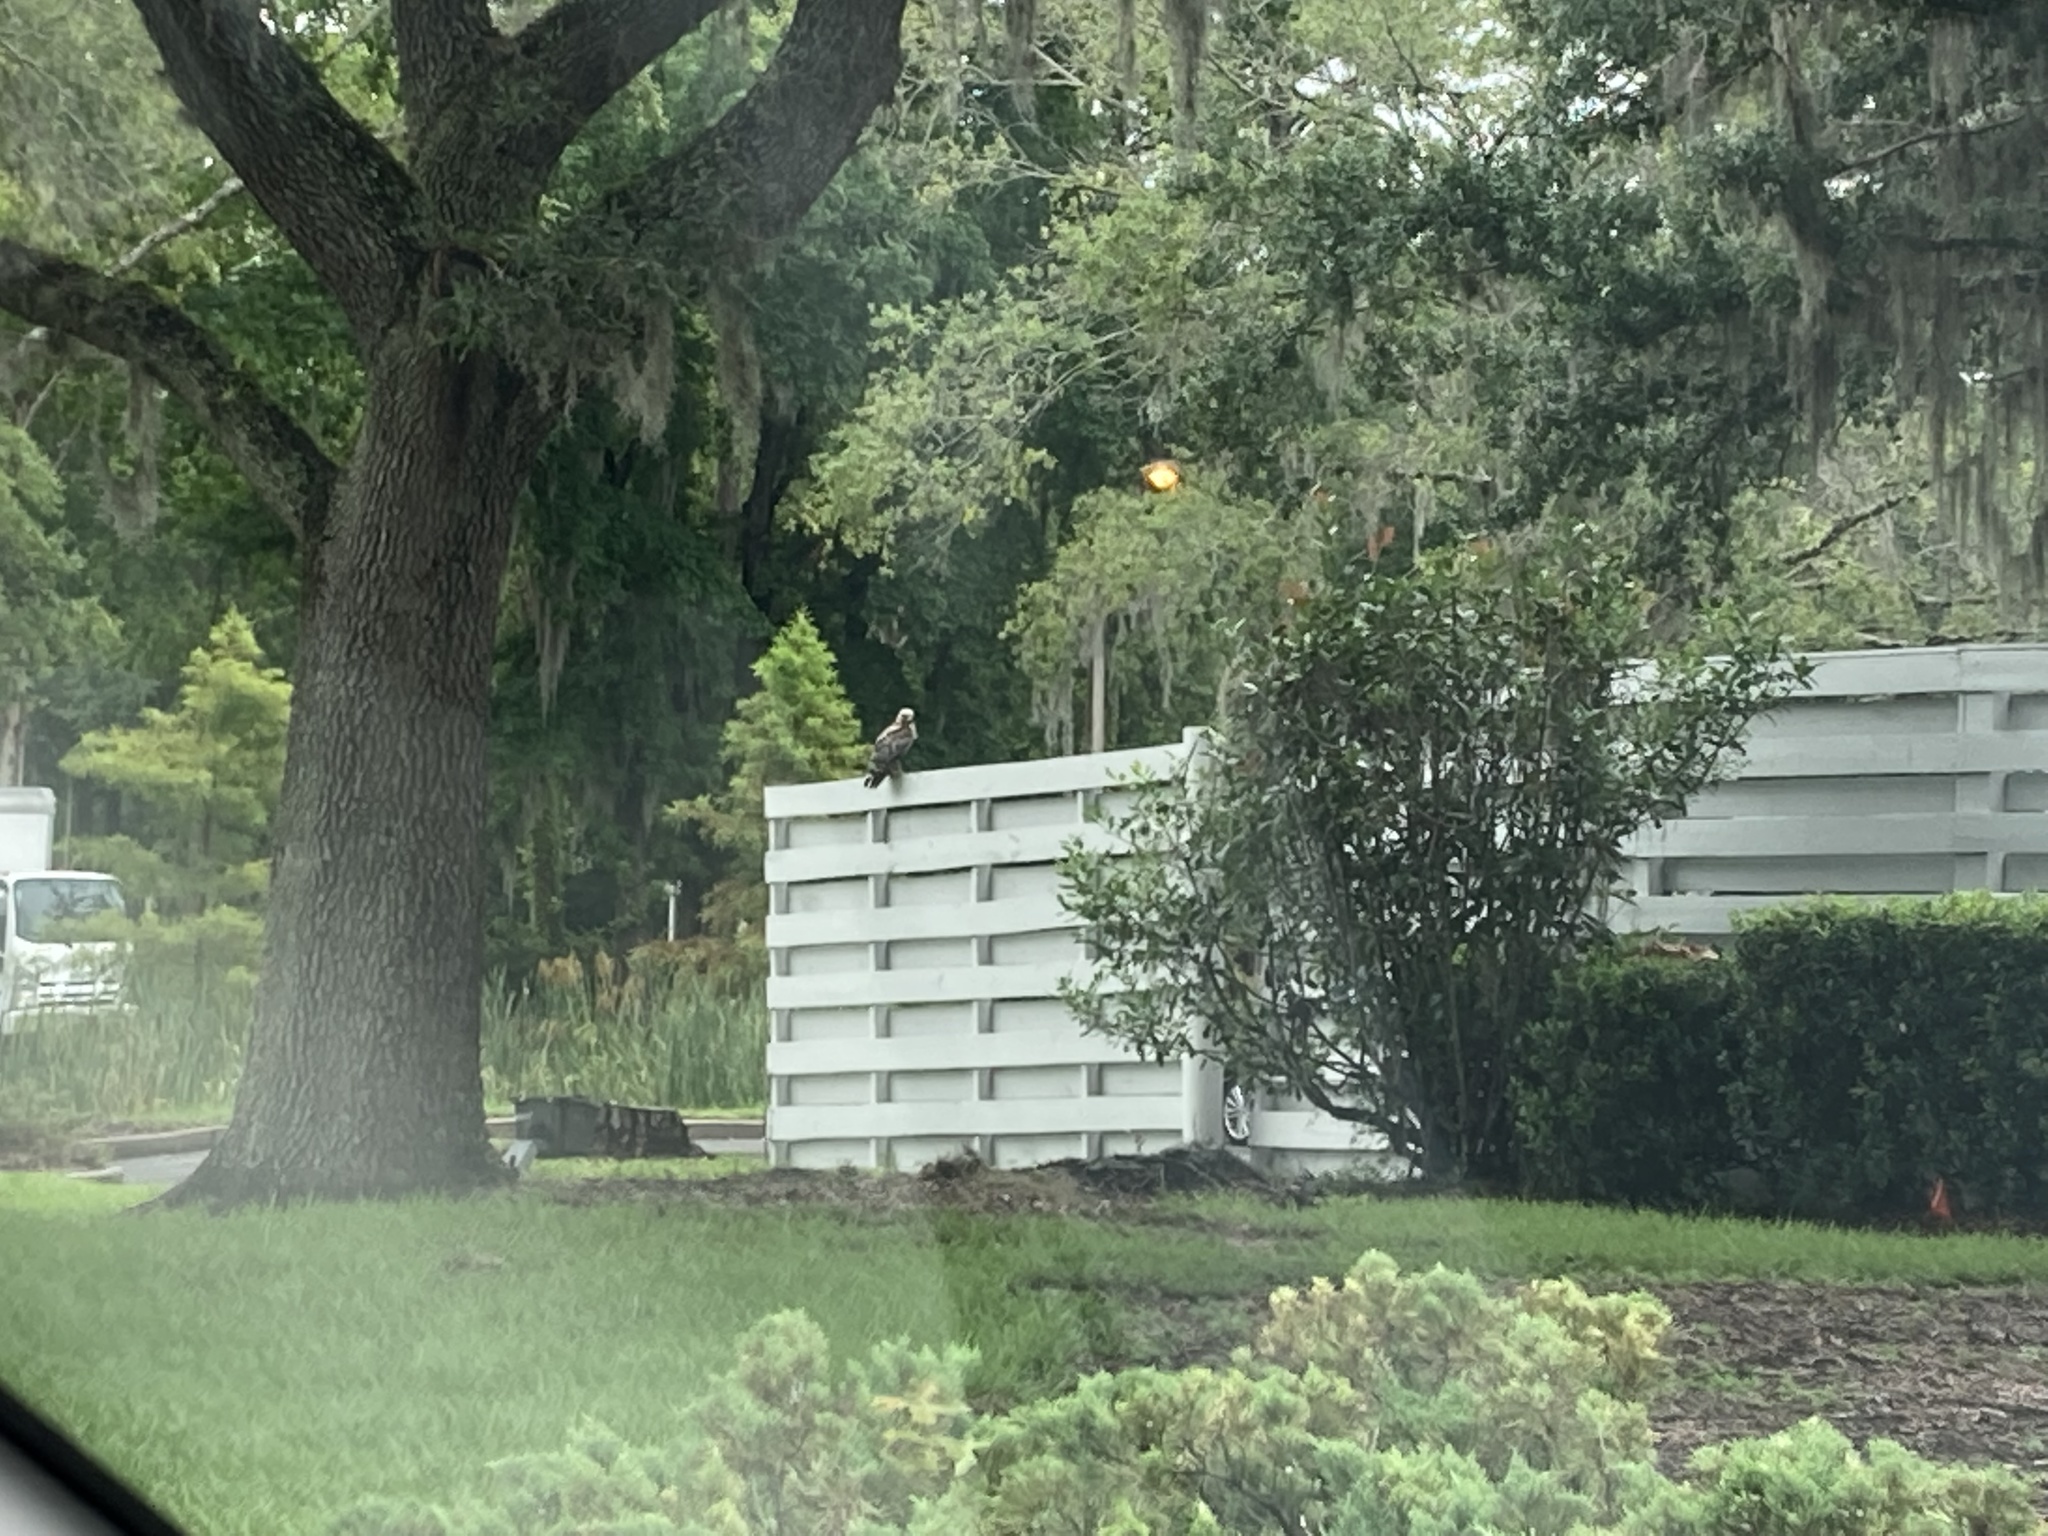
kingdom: Animalia
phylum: Chordata
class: Aves
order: Accipitriformes
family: Accipitridae
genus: Buteo
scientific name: Buteo lineatus
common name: Red-shouldered hawk
